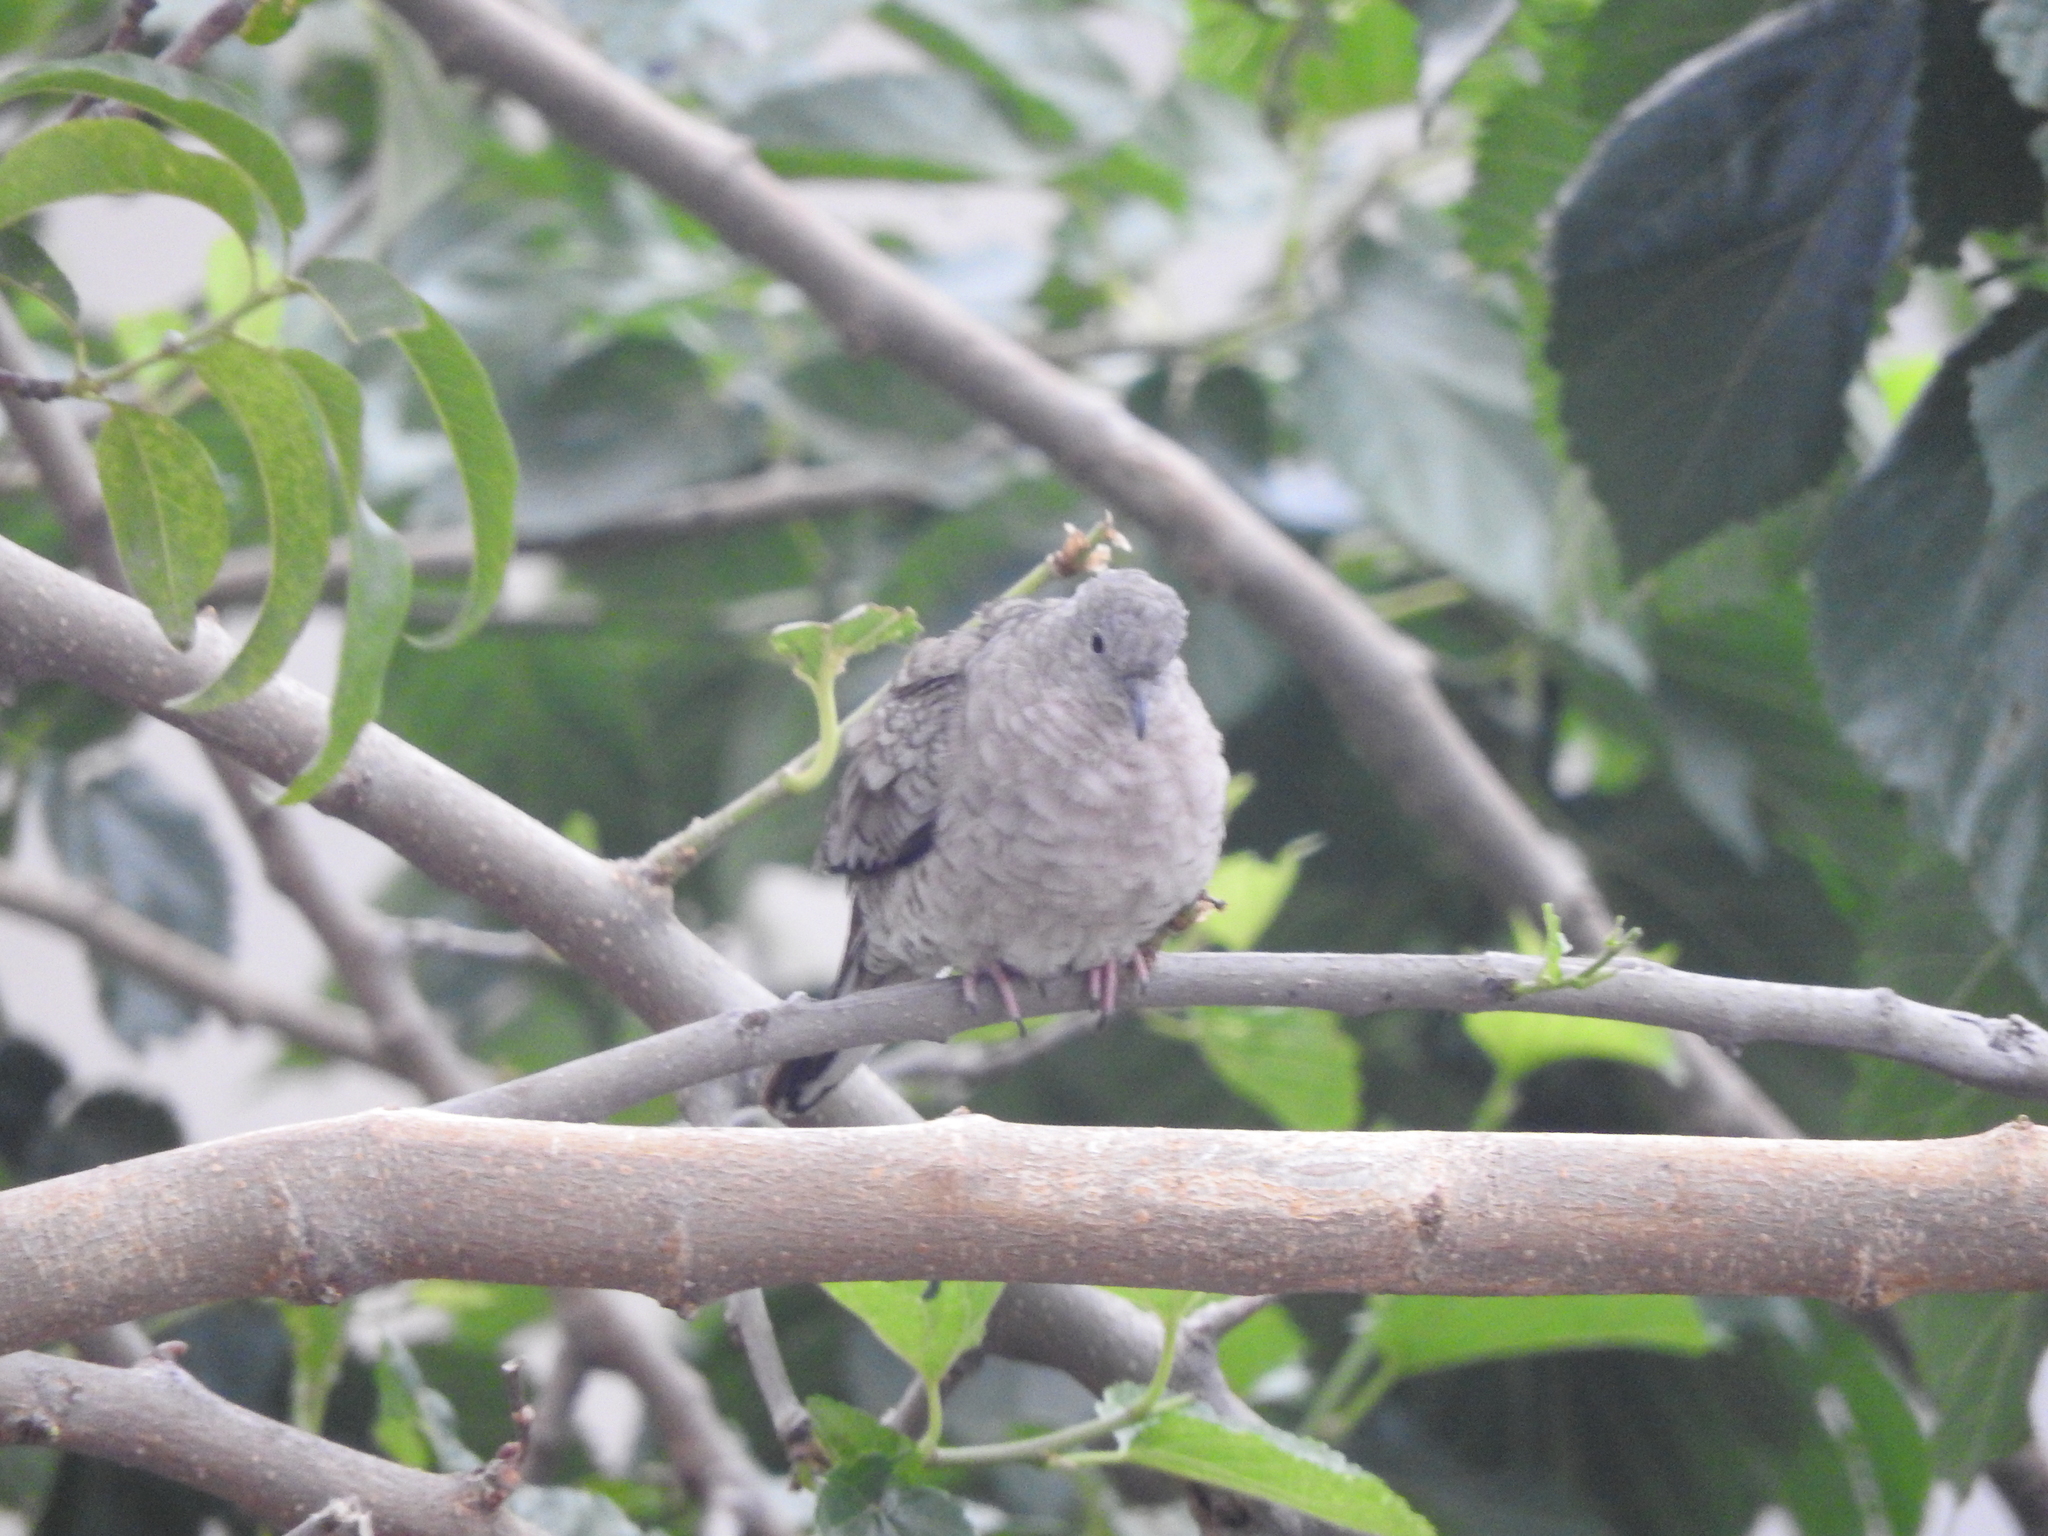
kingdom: Animalia
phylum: Chordata
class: Aves
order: Columbiformes
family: Columbidae
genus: Columbina
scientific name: Columbina inca
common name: Inca dove
